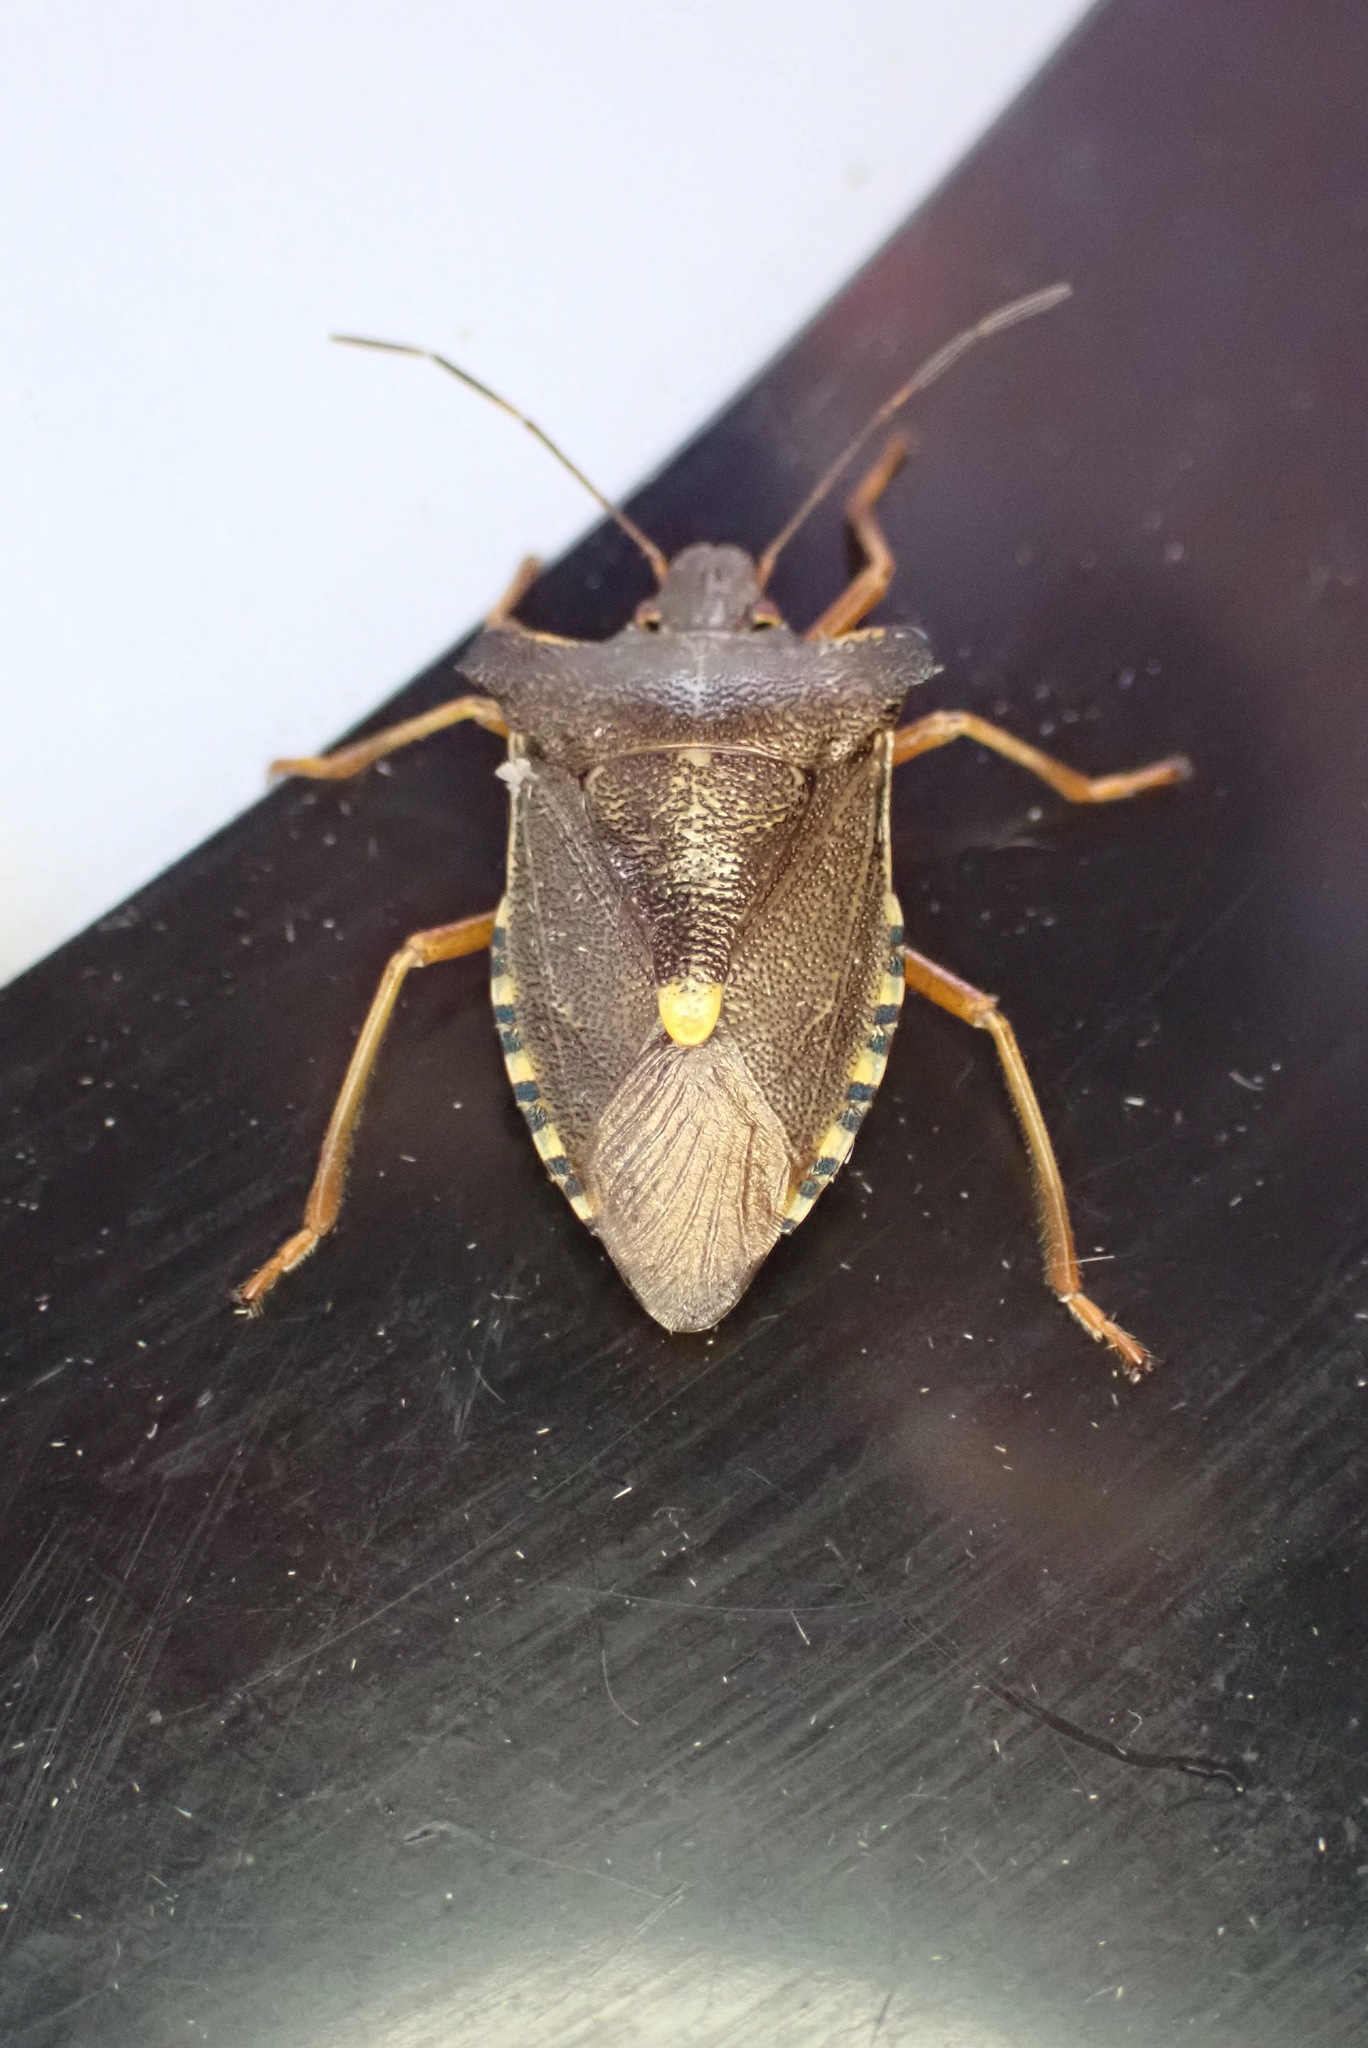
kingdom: Animalia
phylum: Arthropoda
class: Insecta
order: Hemiptera
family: Pentatomidae
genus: Pentatoma
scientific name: Pentatoma rufipes
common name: Forest bug
